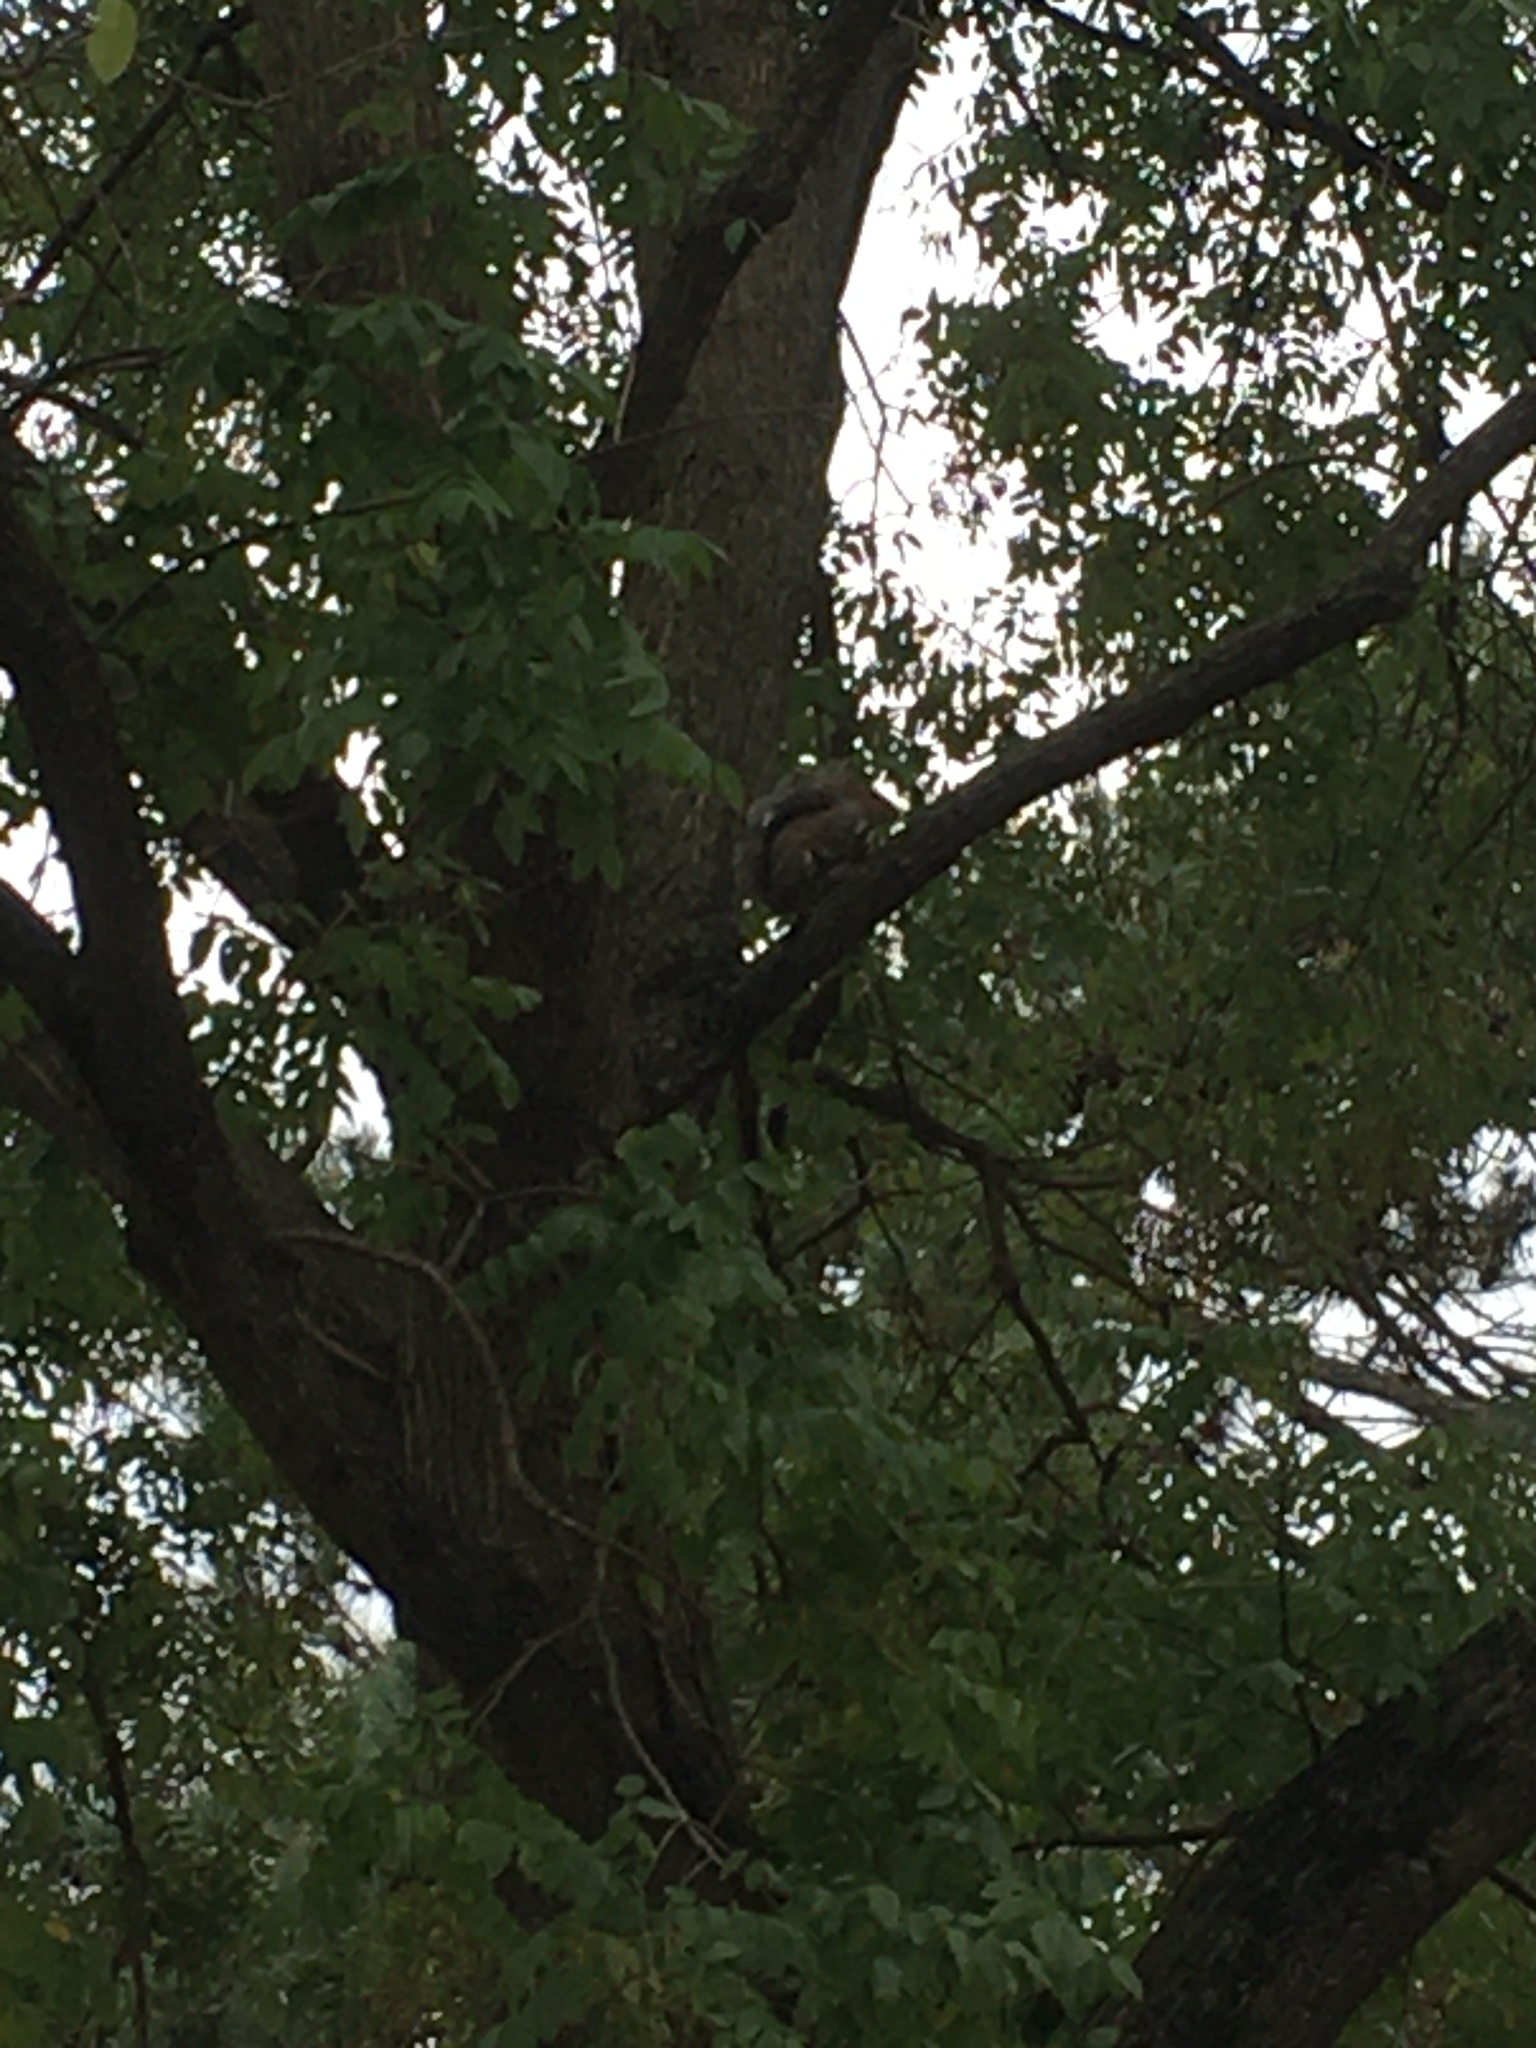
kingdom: Animalia
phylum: Chordata
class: Mammalia
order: Rodentia
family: Sciuridae
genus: Sciurus
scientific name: Sciurus carolinensis
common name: Eastern gray squirrel
